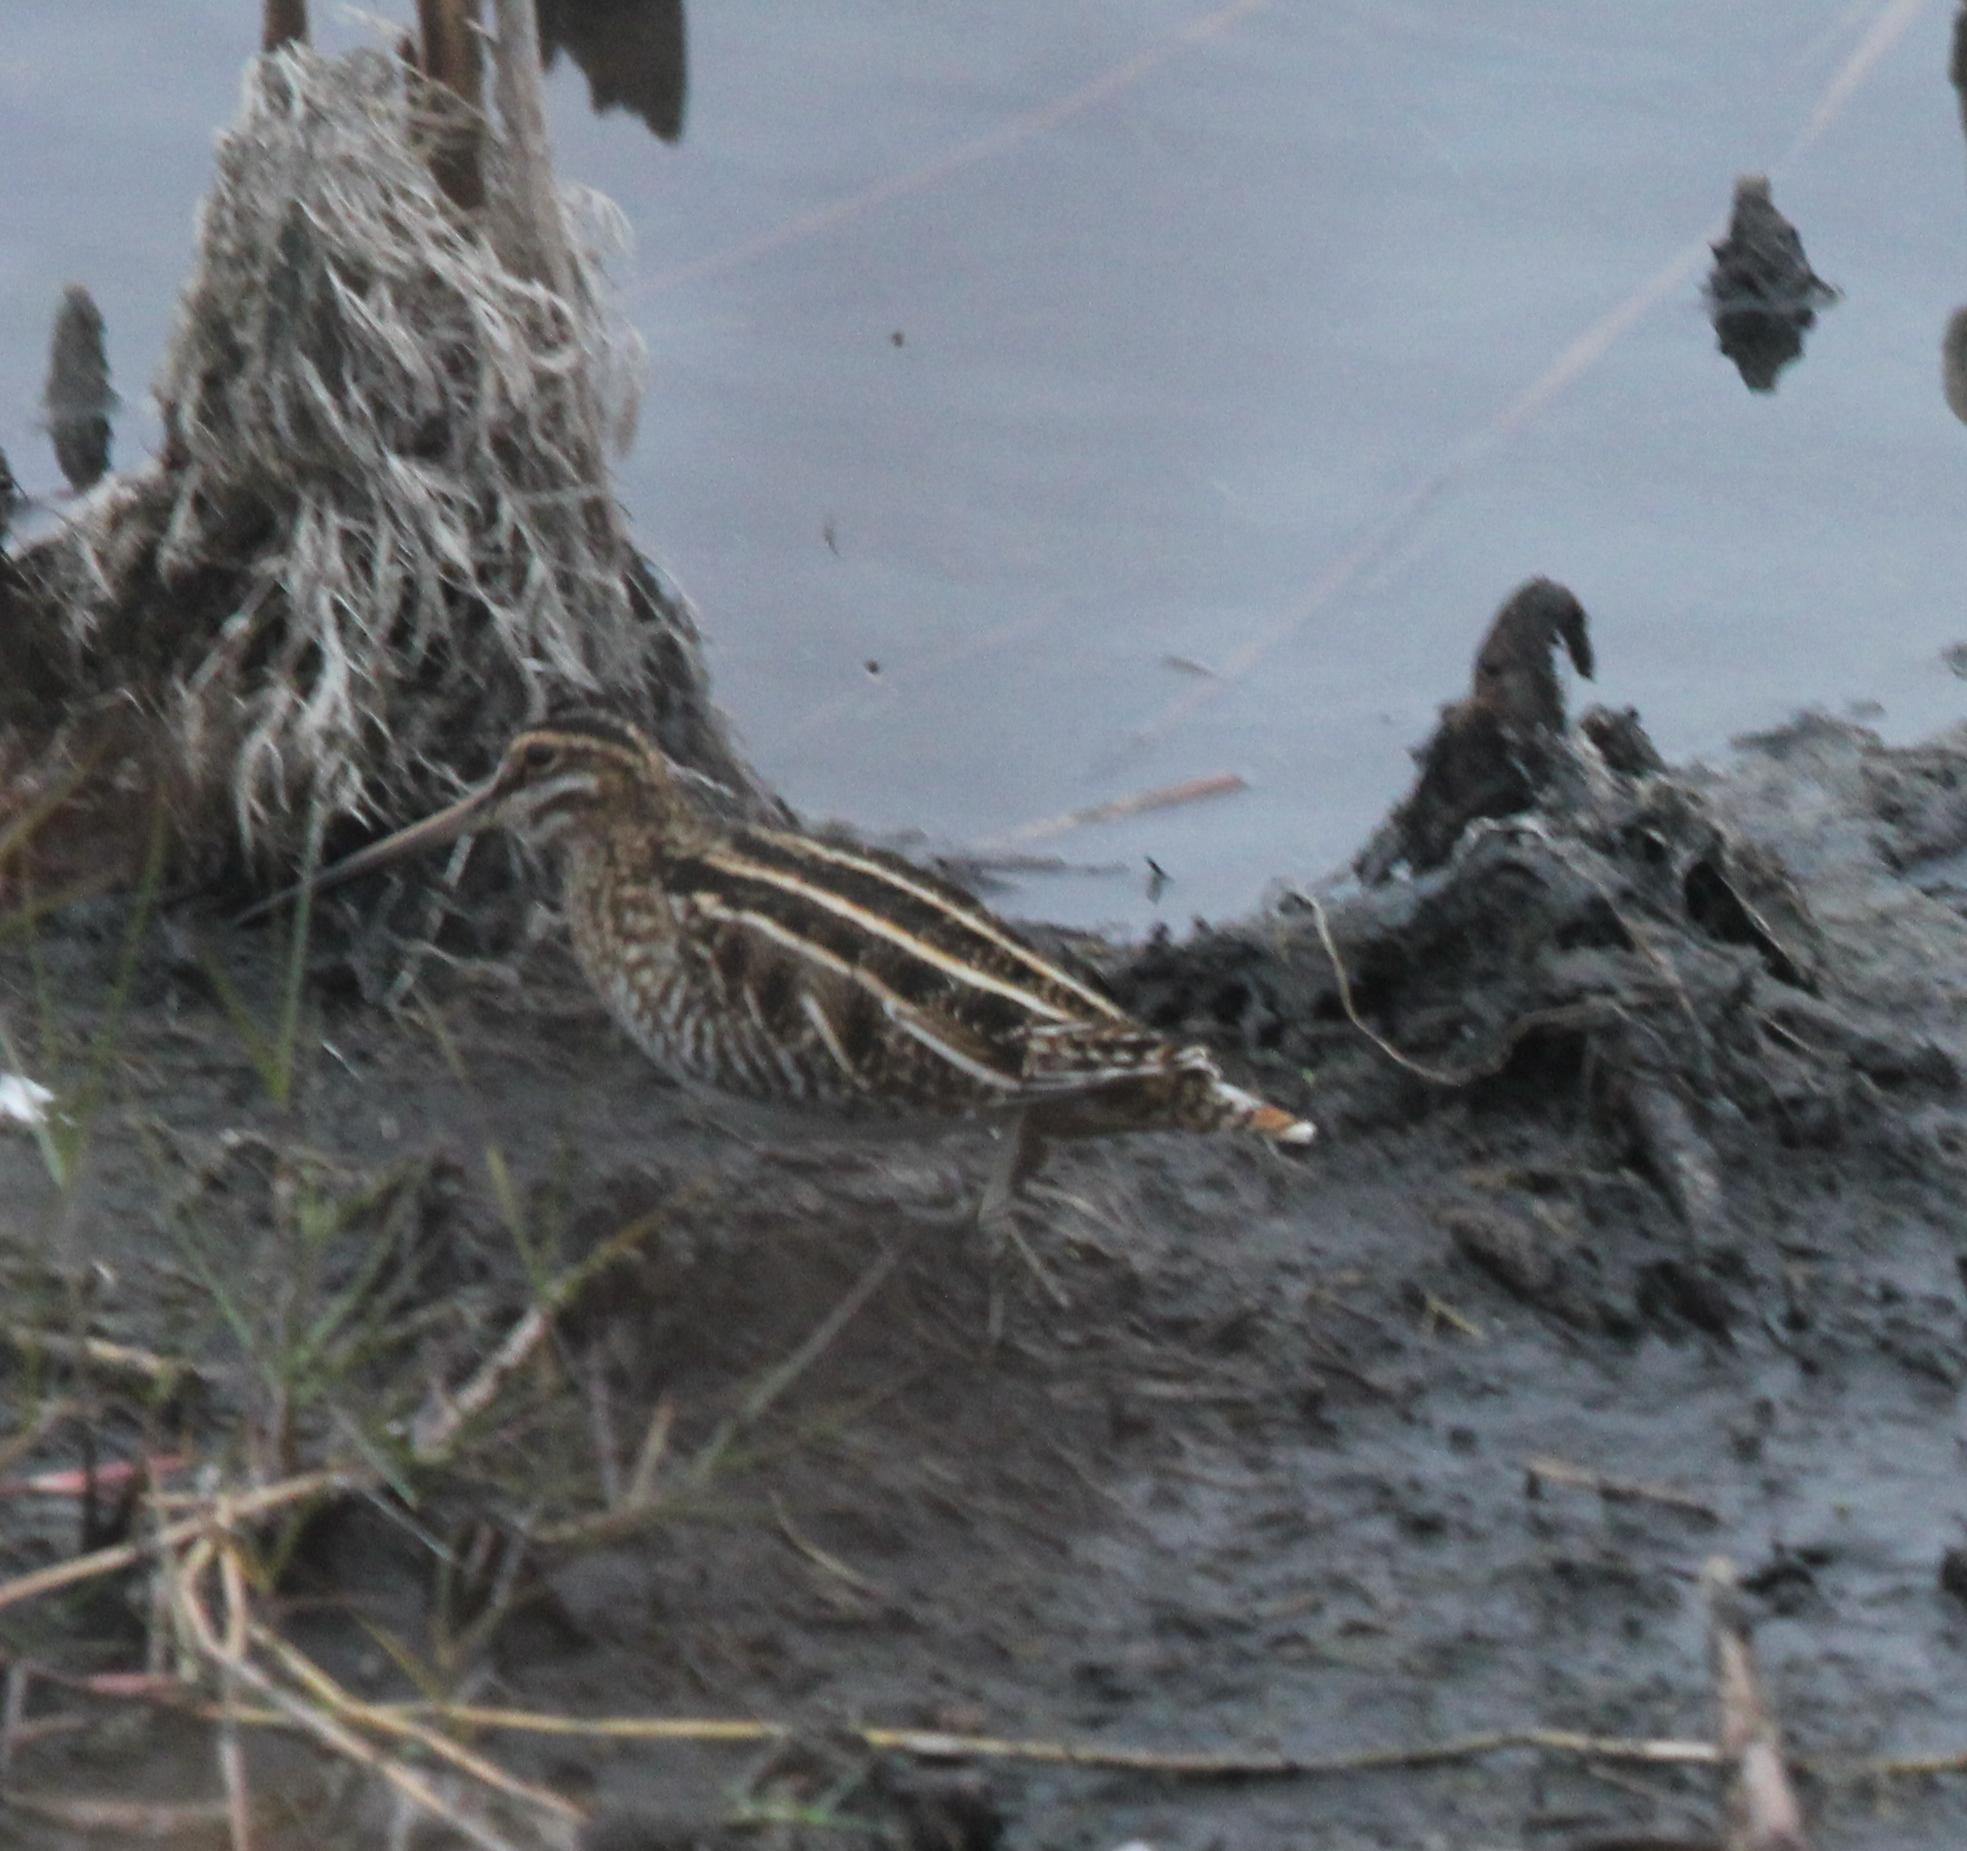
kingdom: Animalia
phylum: Chordata
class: Aves
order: Charadriiformes
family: Scolopacidae
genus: Gallinago
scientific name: Gallinago delicata
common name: Wilson's snipe
